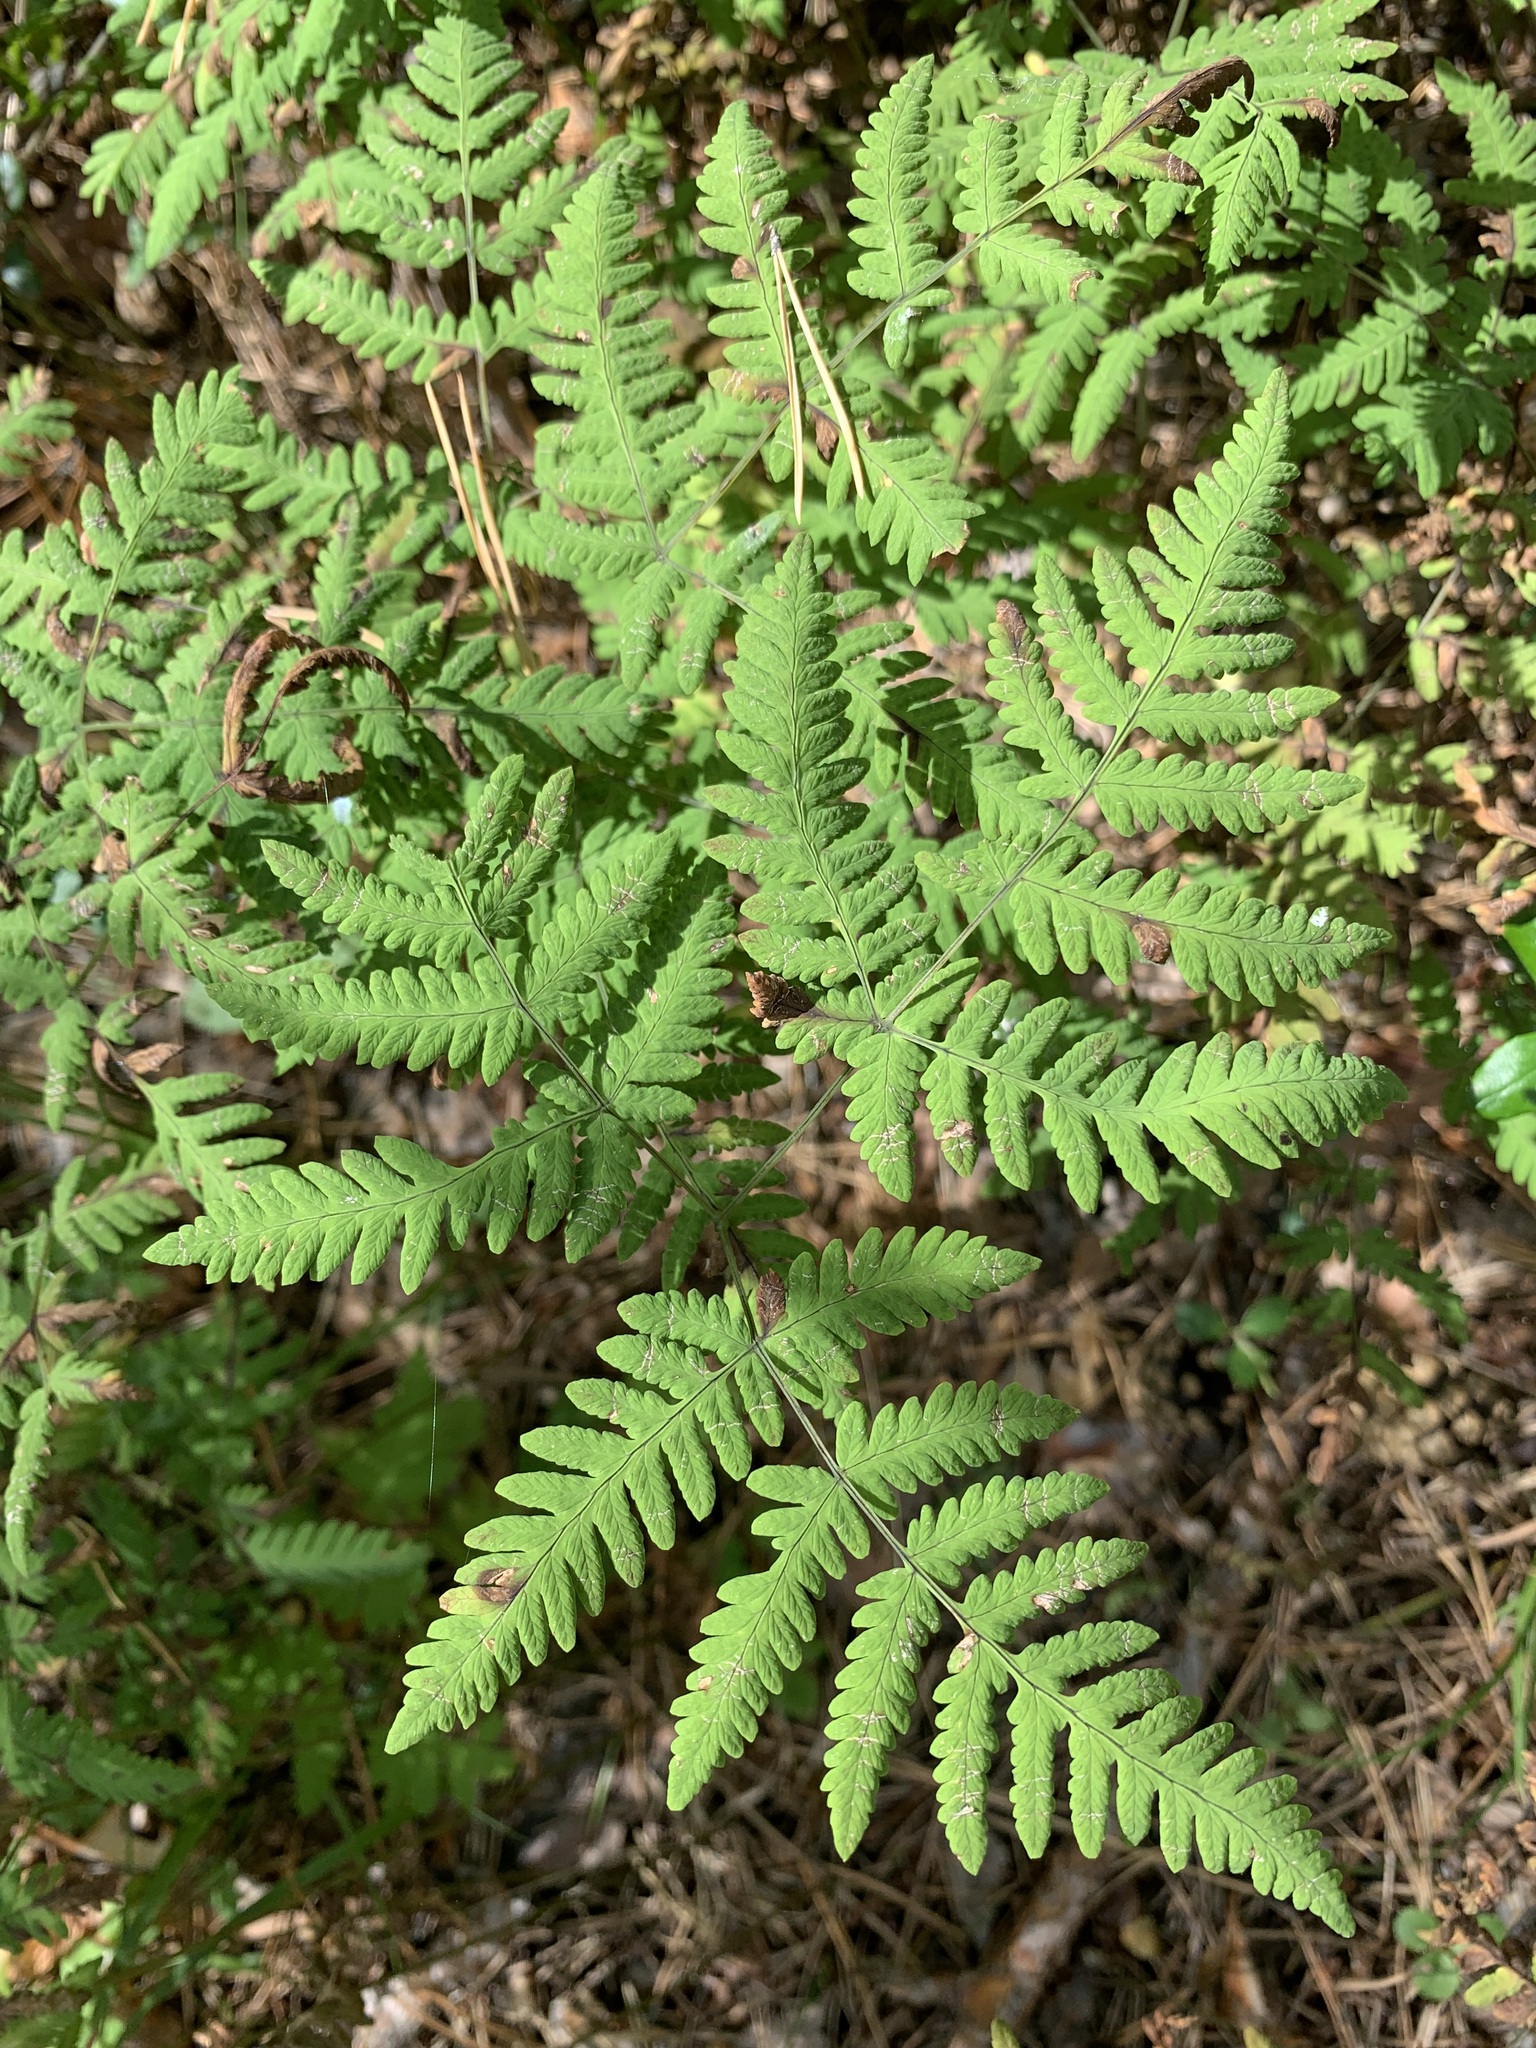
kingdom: Plantae
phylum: Tracheophyta
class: Polypodiopsida
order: Polypodiales
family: Cystopteridaceae
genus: Gymnocarpium
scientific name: Gymnocarpium dryopteris
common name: Oak fern
